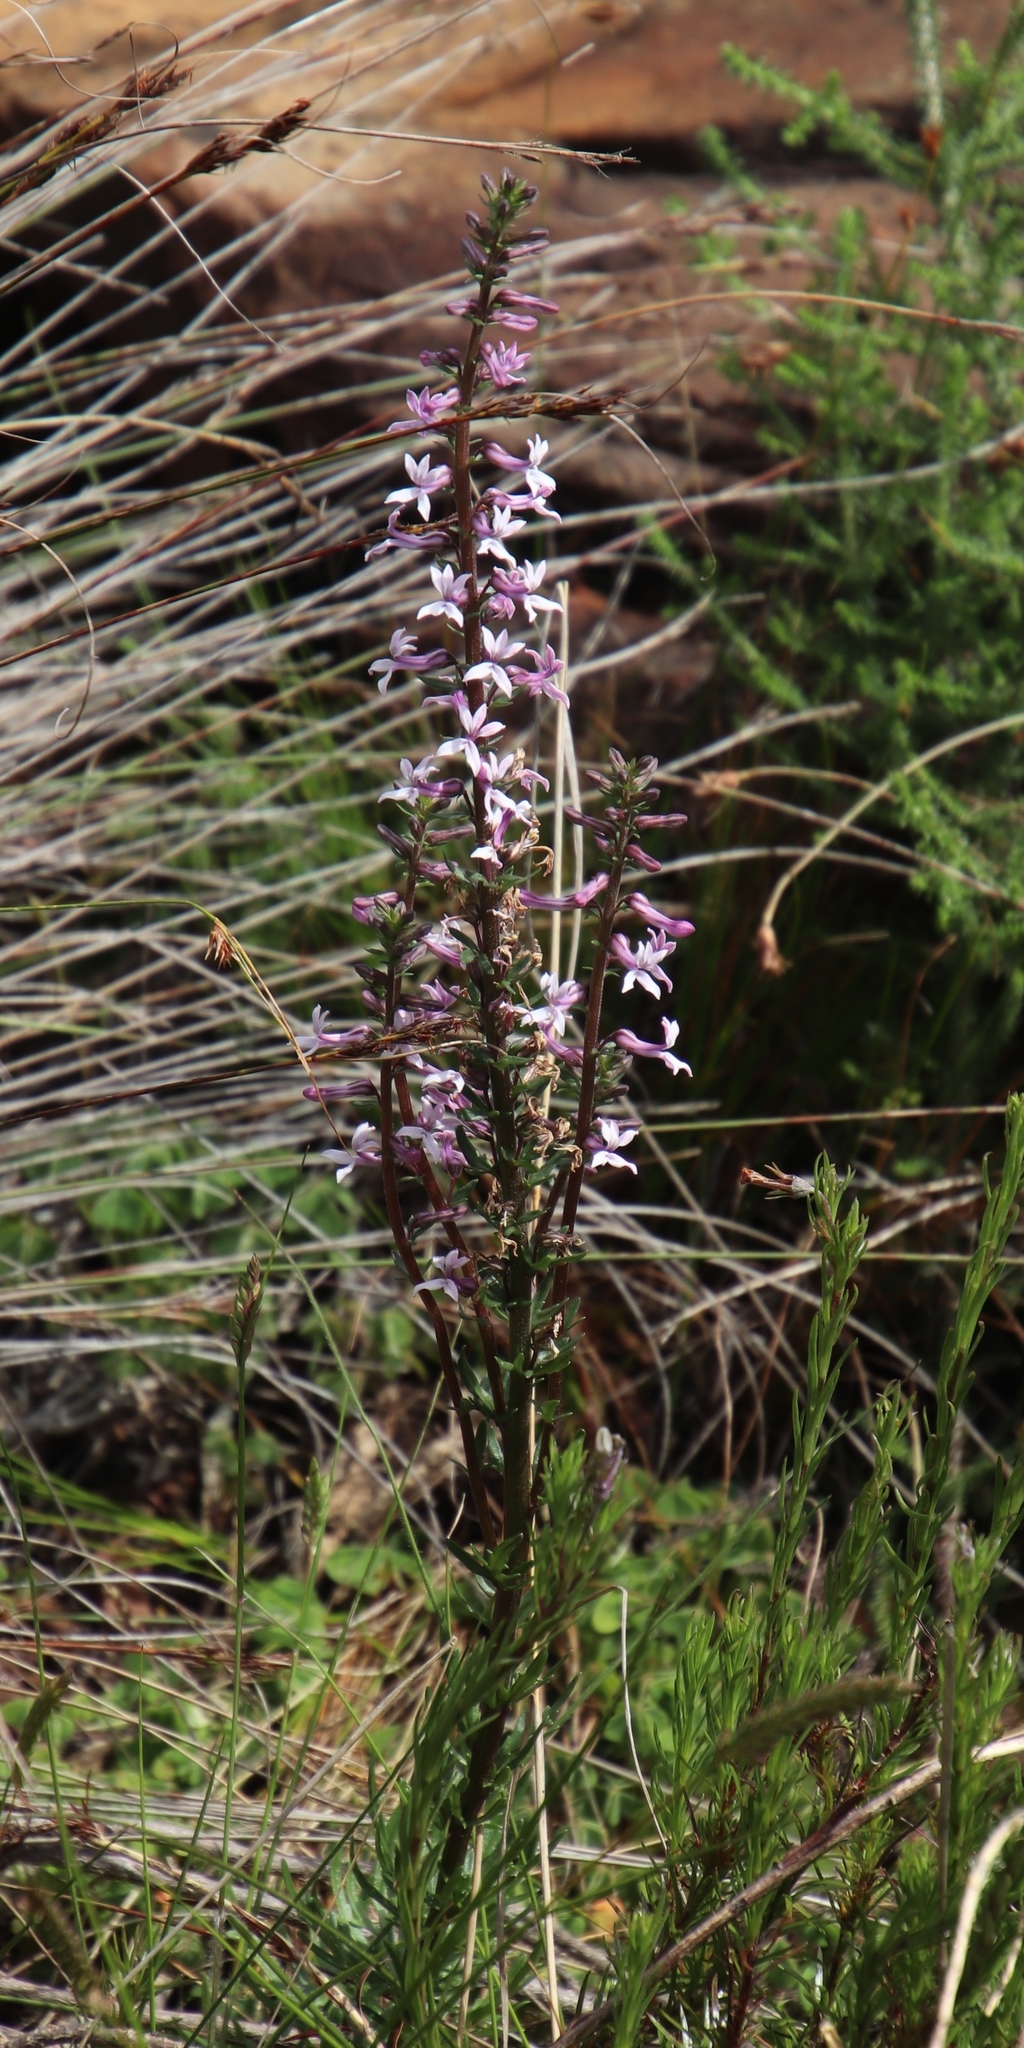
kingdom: Plantae
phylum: Tracheophyta
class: Magnoliopsida
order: Asterales
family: Campanulaceae
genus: Cyphia
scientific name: Cyphia bulbosa
